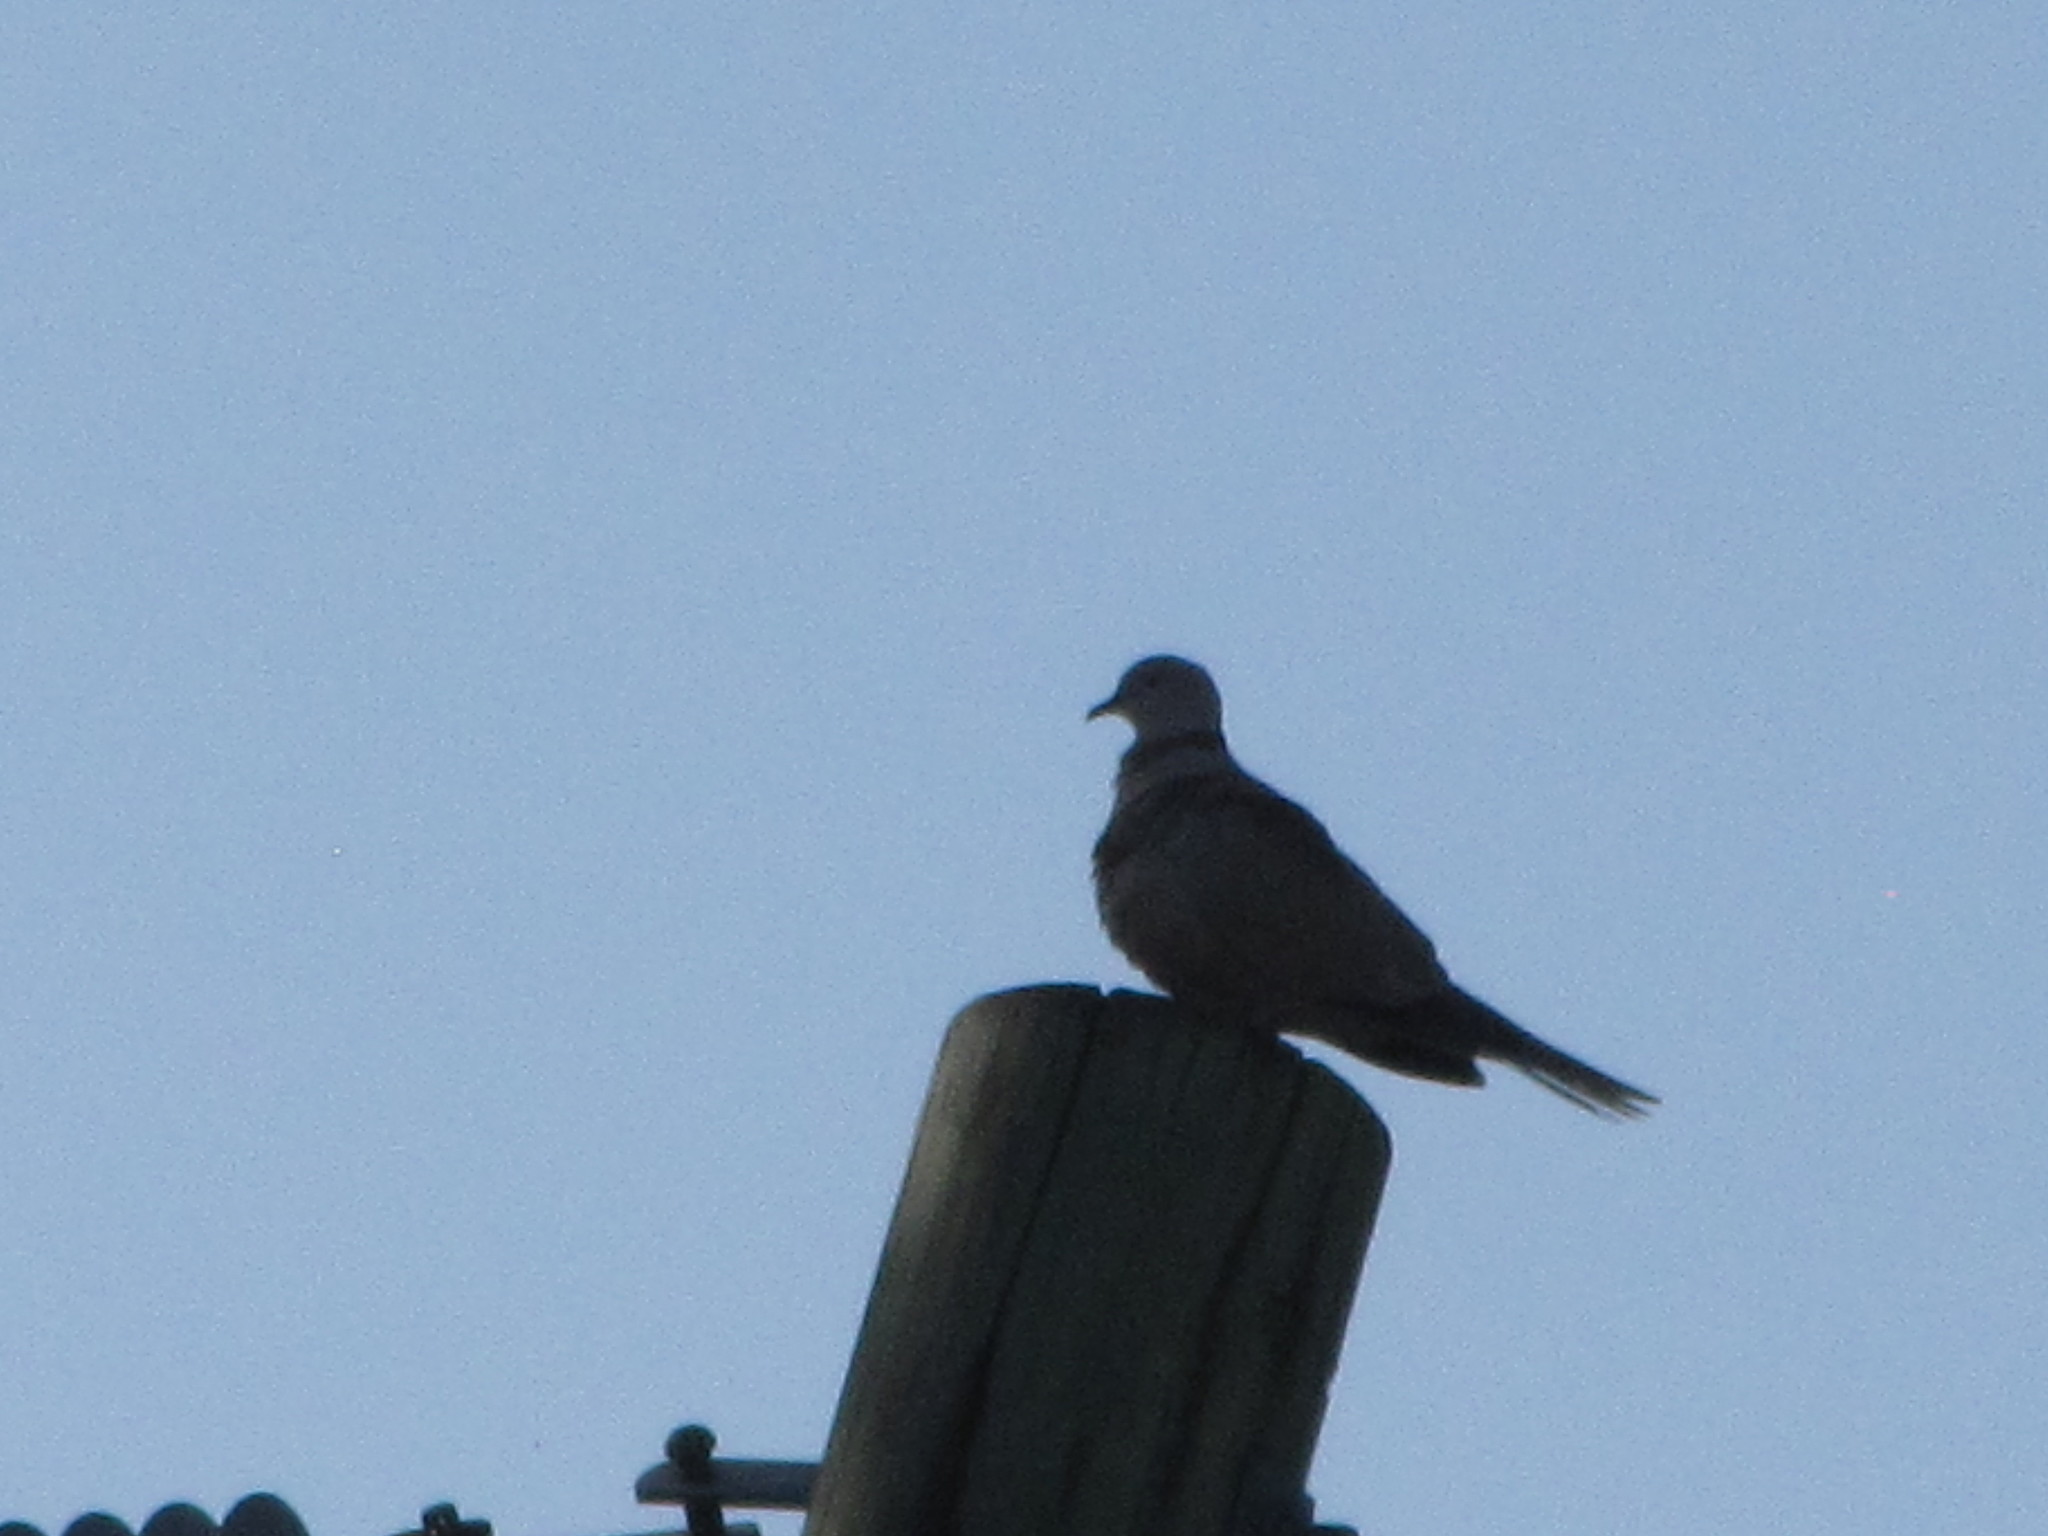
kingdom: Animalia
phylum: Chordata
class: Aves
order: Columbiformes
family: Columbidae
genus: Streptopelia
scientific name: Streptopelia decaocto
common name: Eurasian collared dove
